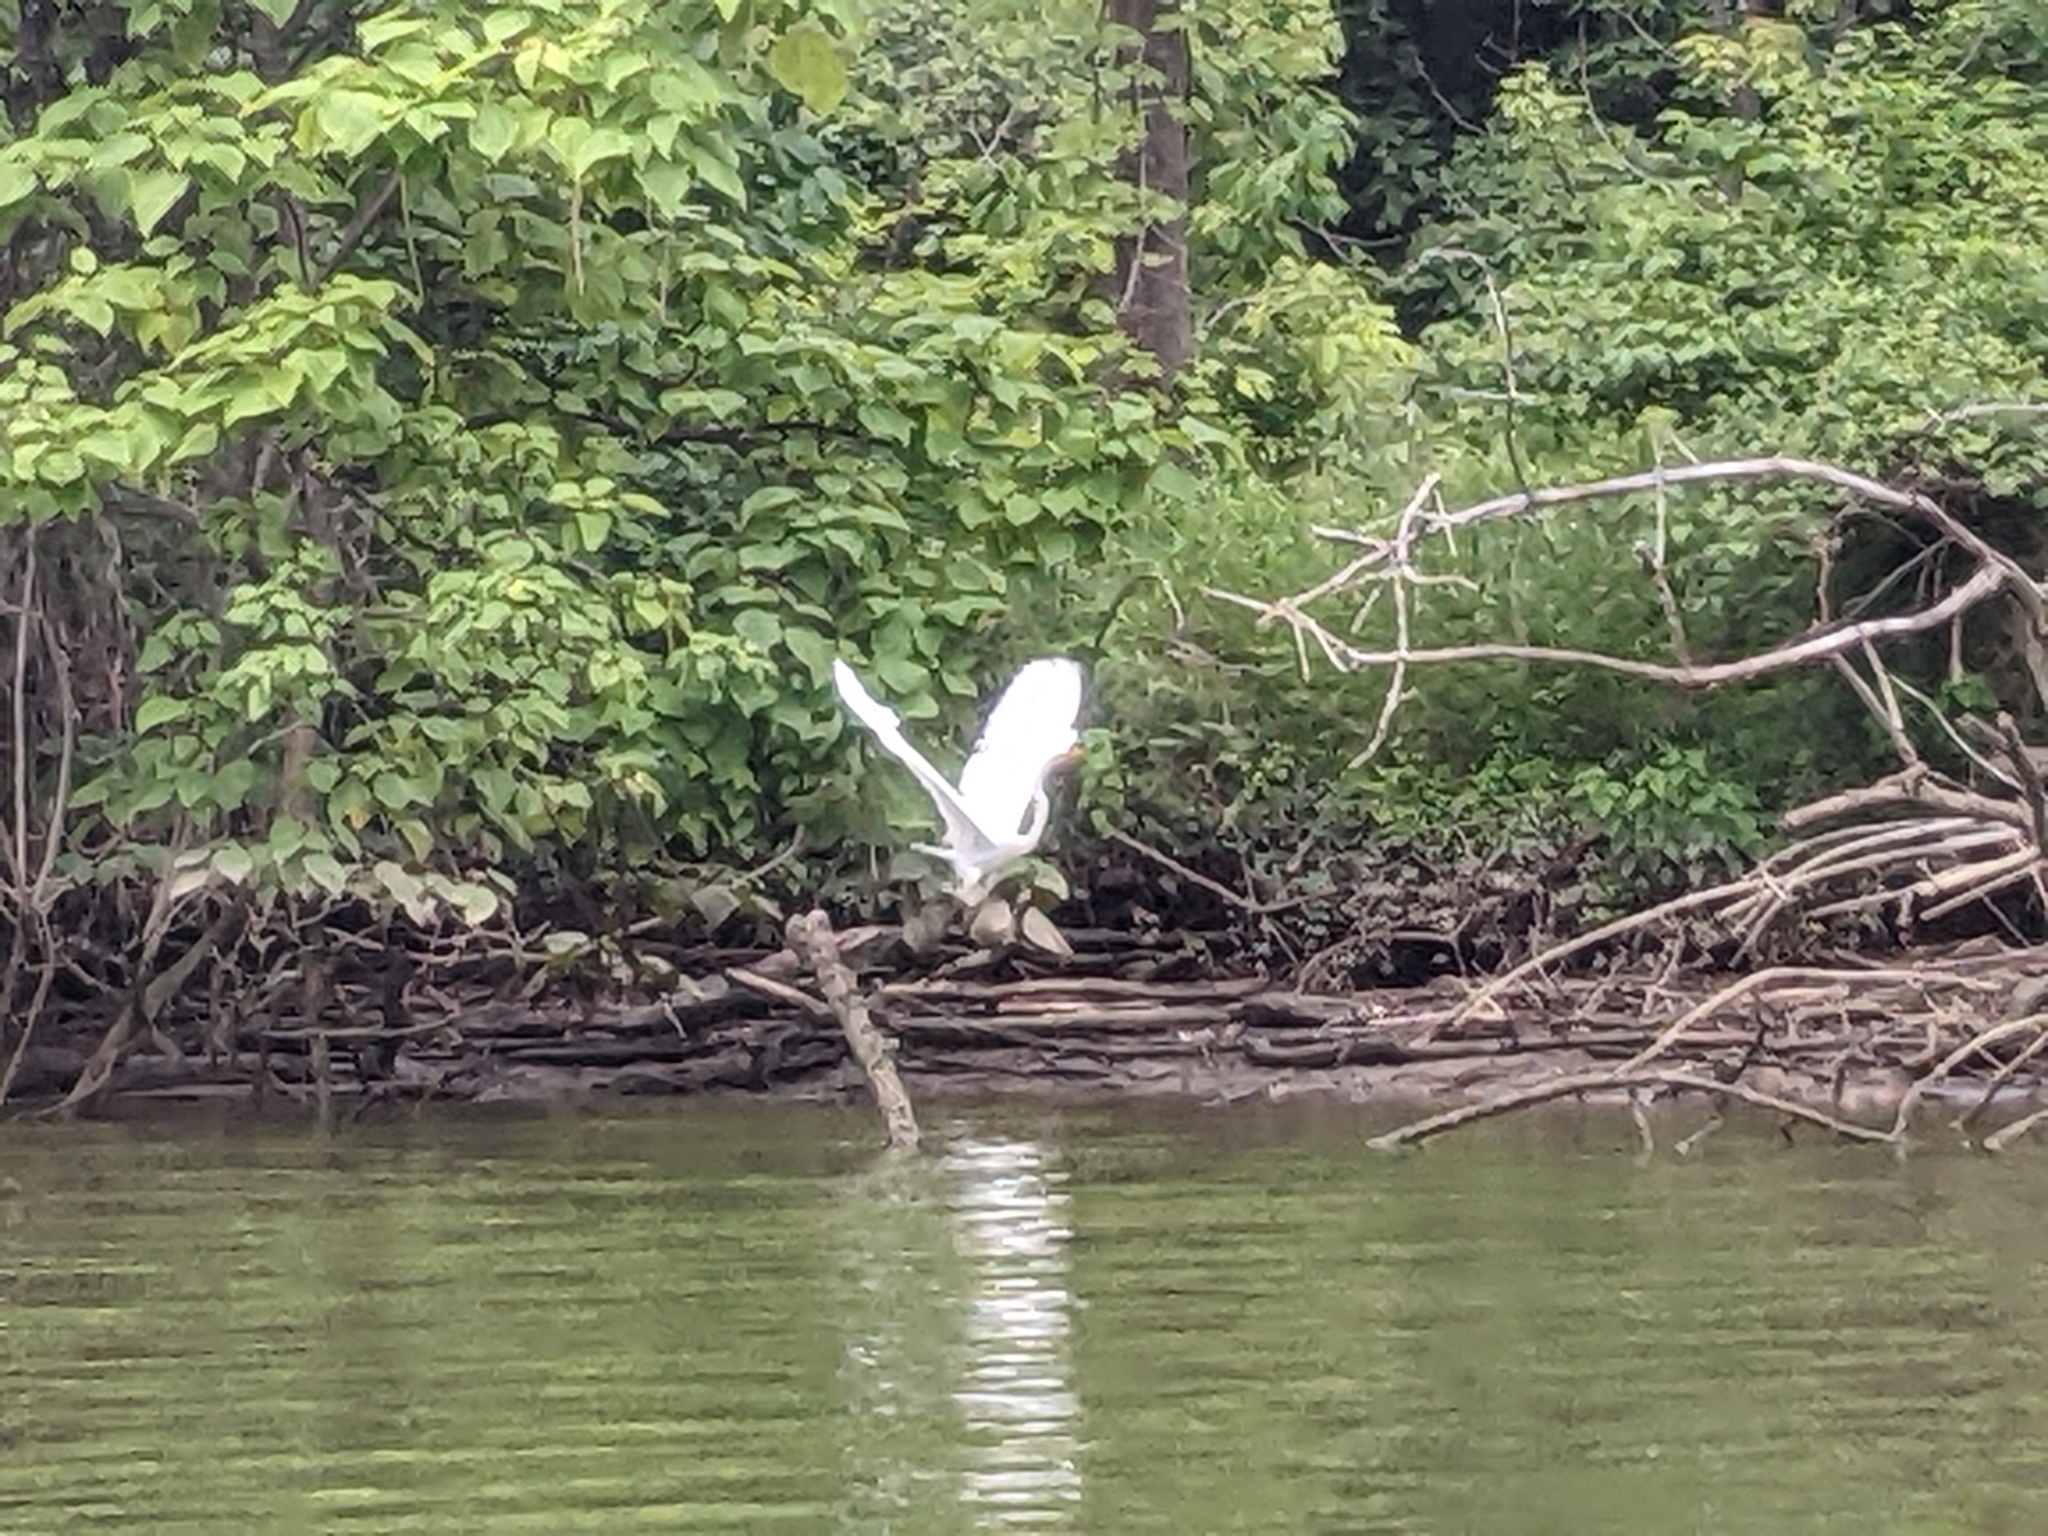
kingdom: Animalia
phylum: Chordata
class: Aves
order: Pelecaniformes
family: Ardeidae
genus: Ardea
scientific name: Ardea alba
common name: Great egret
